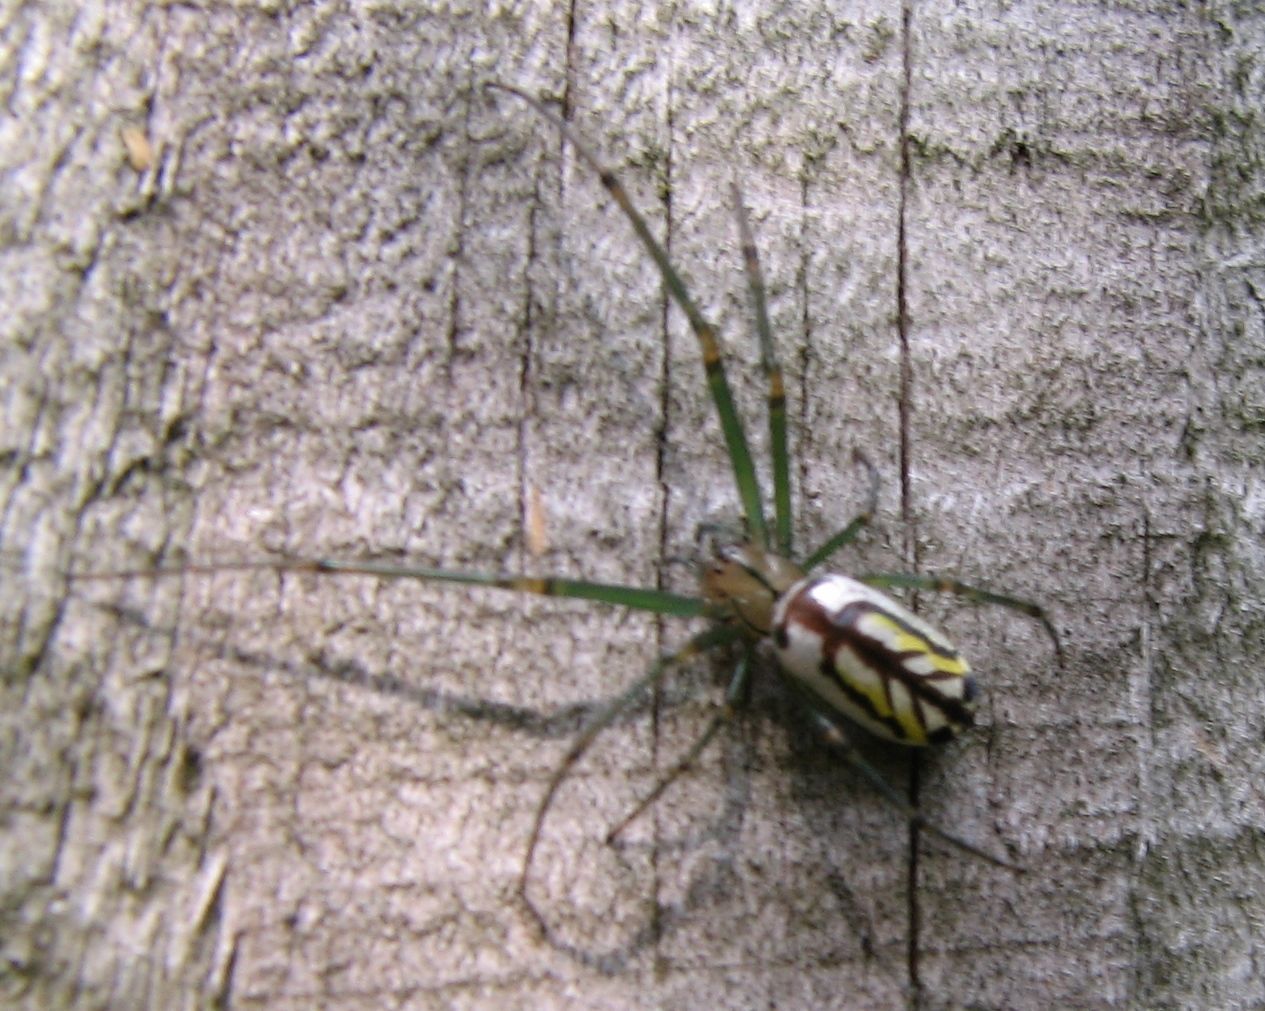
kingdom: Animalia
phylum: Arthropoda
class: Arachnida
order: Araneae
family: Tetragnathidae
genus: Leucauge
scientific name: Leucauge venusta
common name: Longjawed orb weavers
